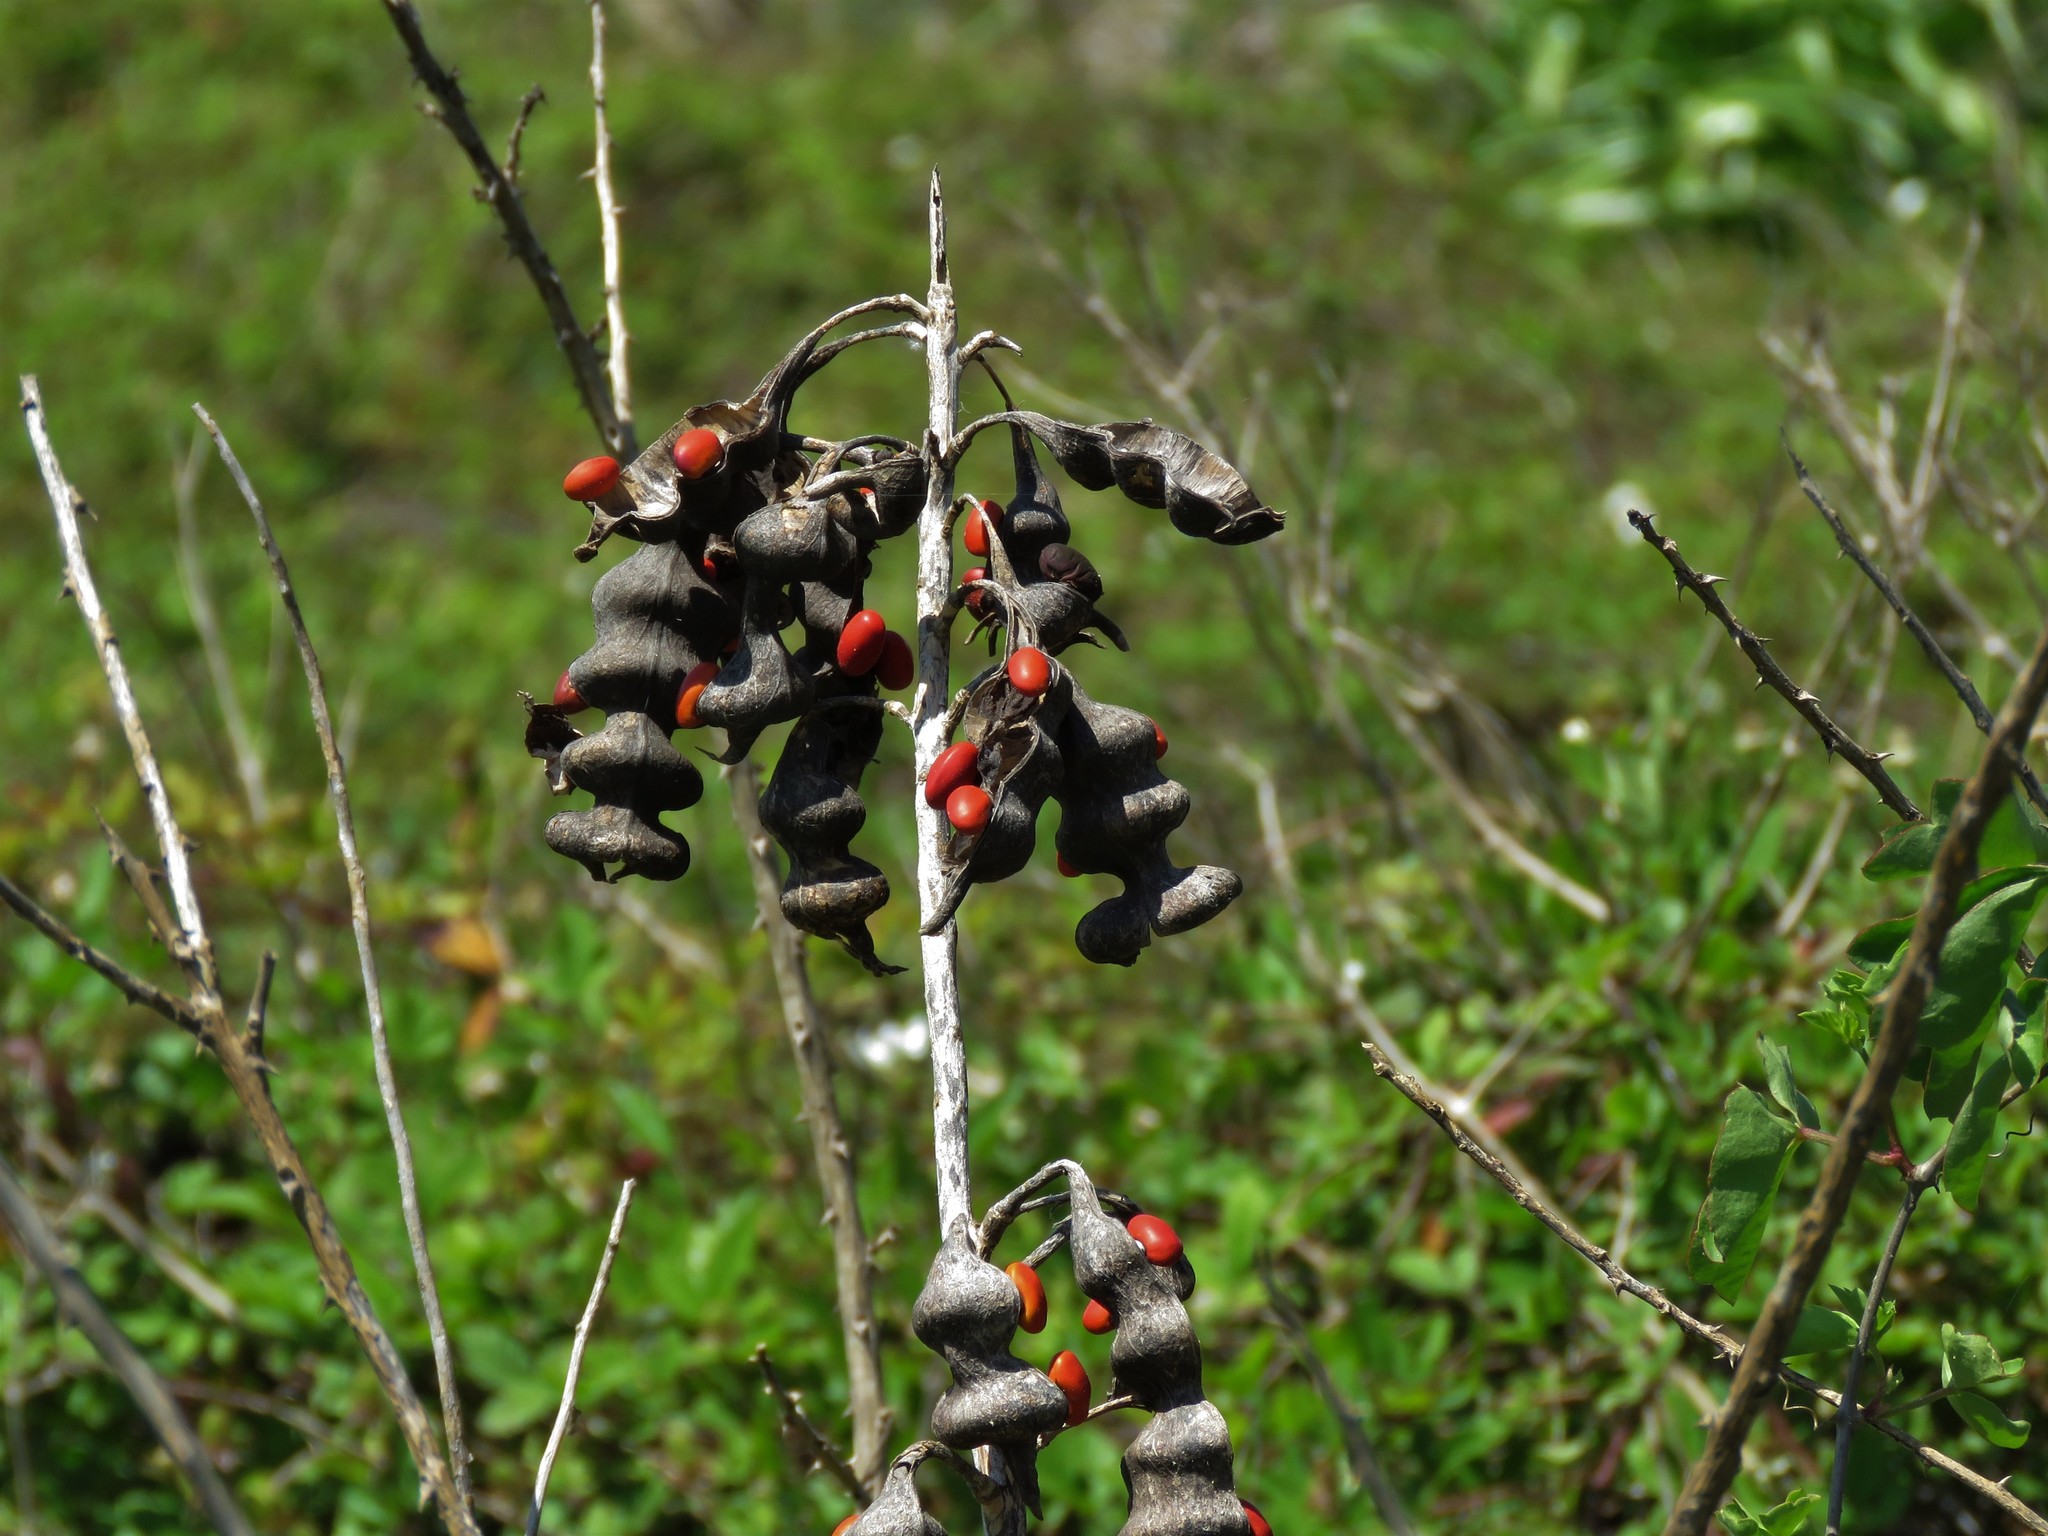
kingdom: Plantae
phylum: Tracheophyta
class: Magnoliopsida
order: Fabales
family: Fabaceae
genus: Erythrina
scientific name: Erythrina herbacea
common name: Coral-bean
